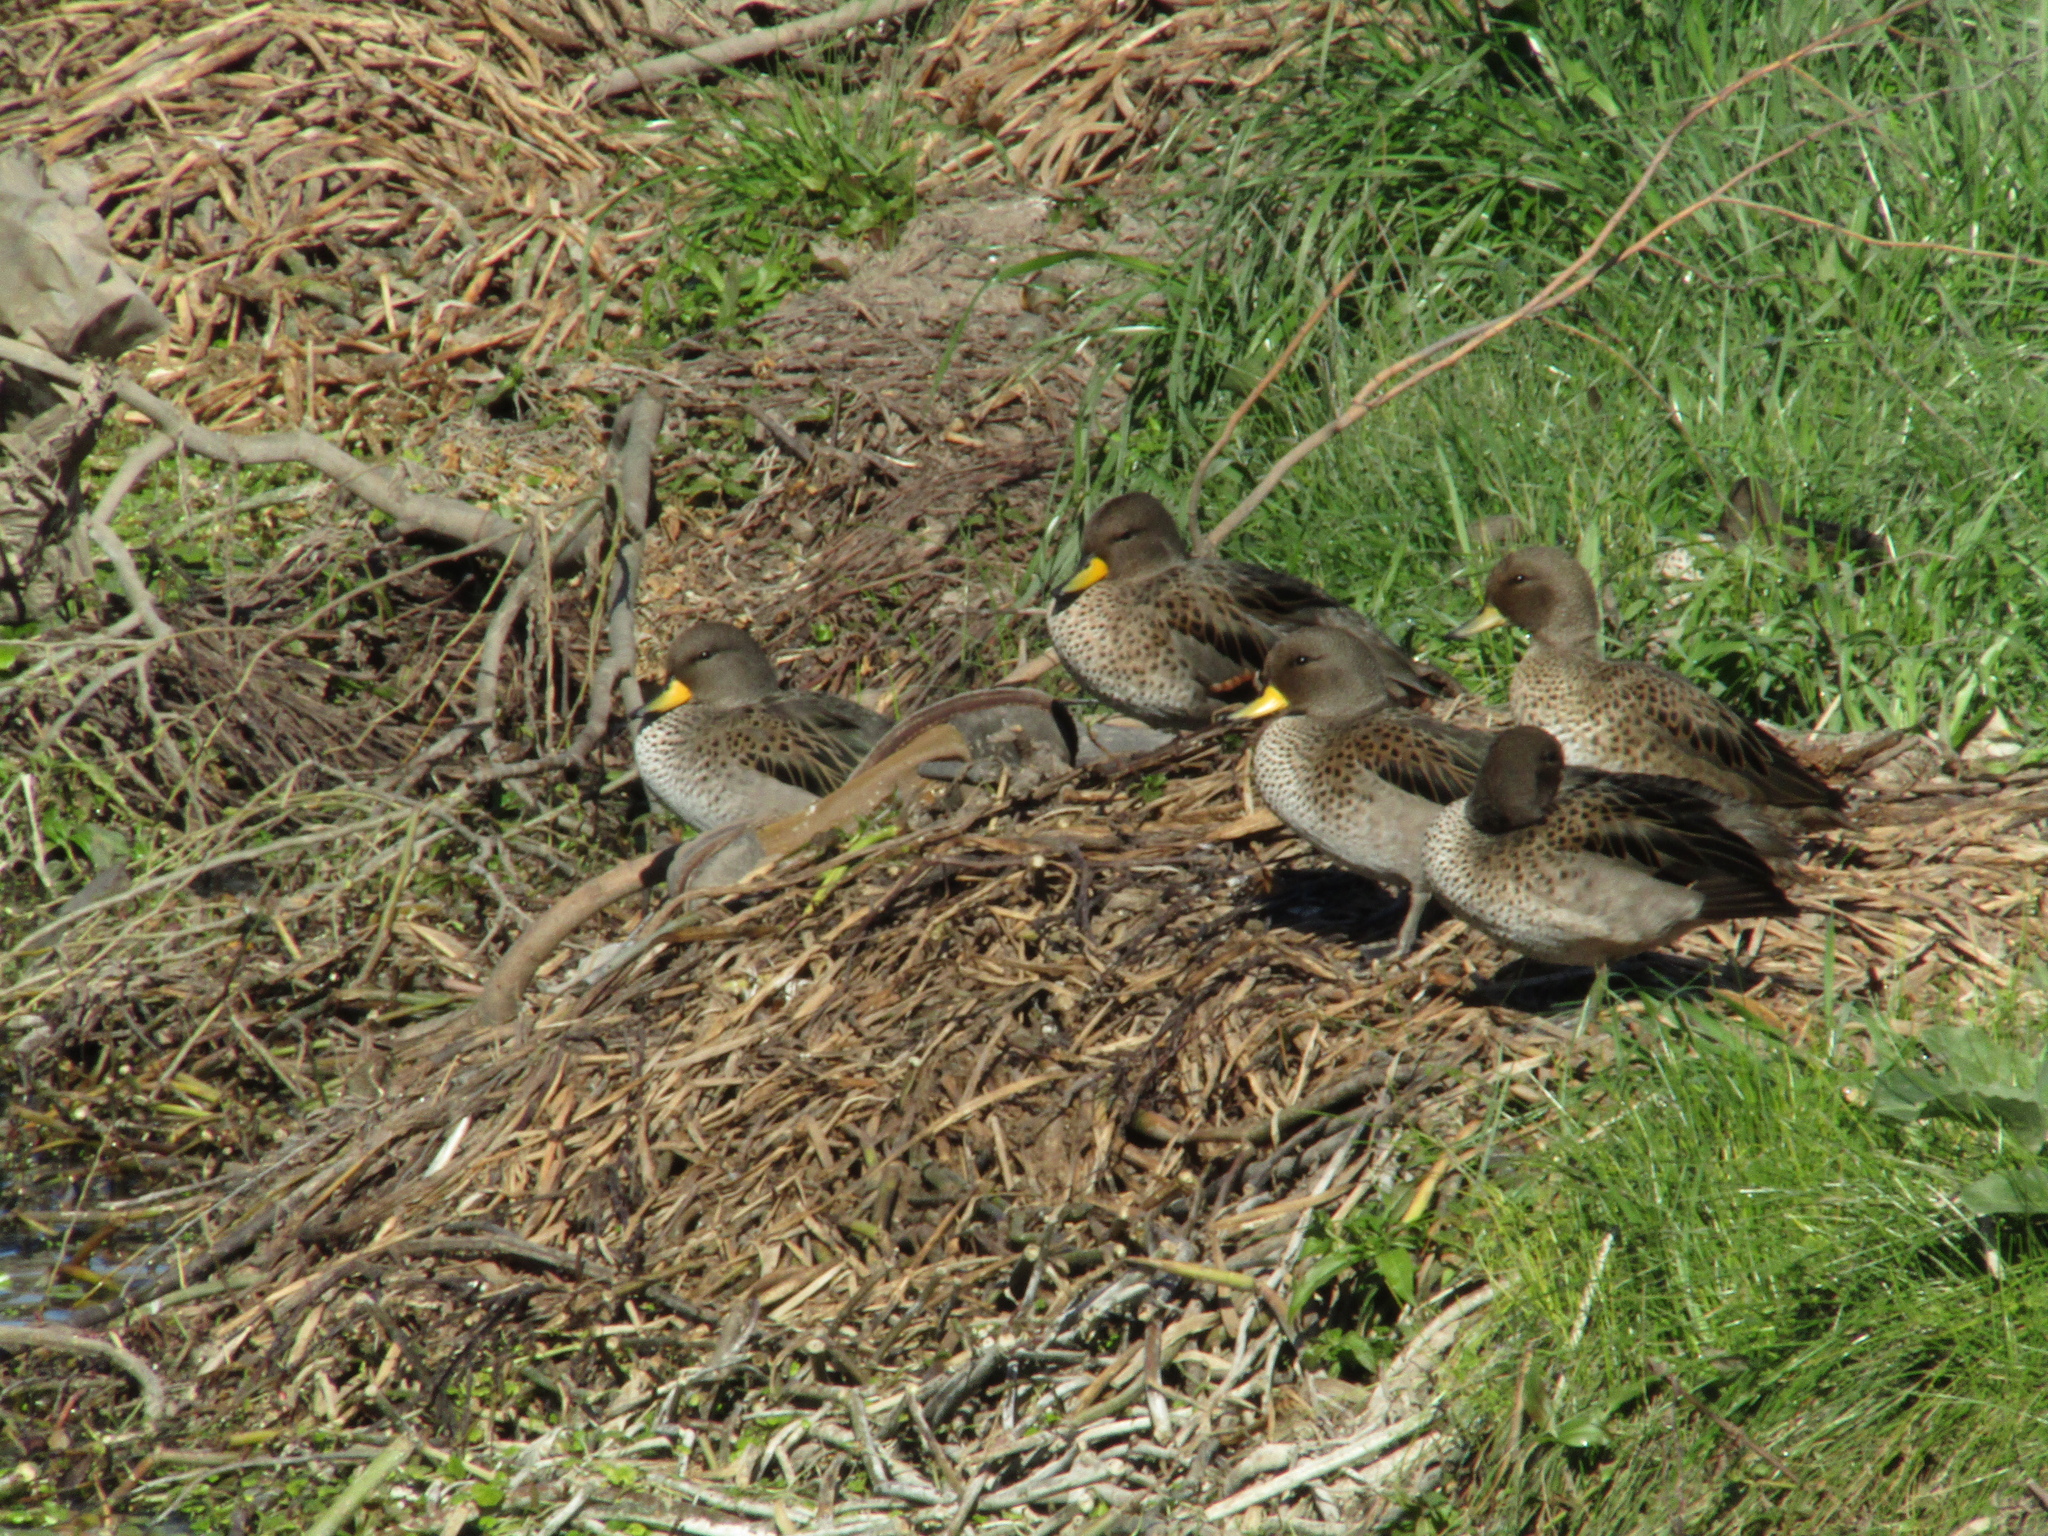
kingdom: Animalia
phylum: Chordata
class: Aves
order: Anseriformes
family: Anatidae
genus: Anas
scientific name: Anas flavirostris
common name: Yellow-billed teal
